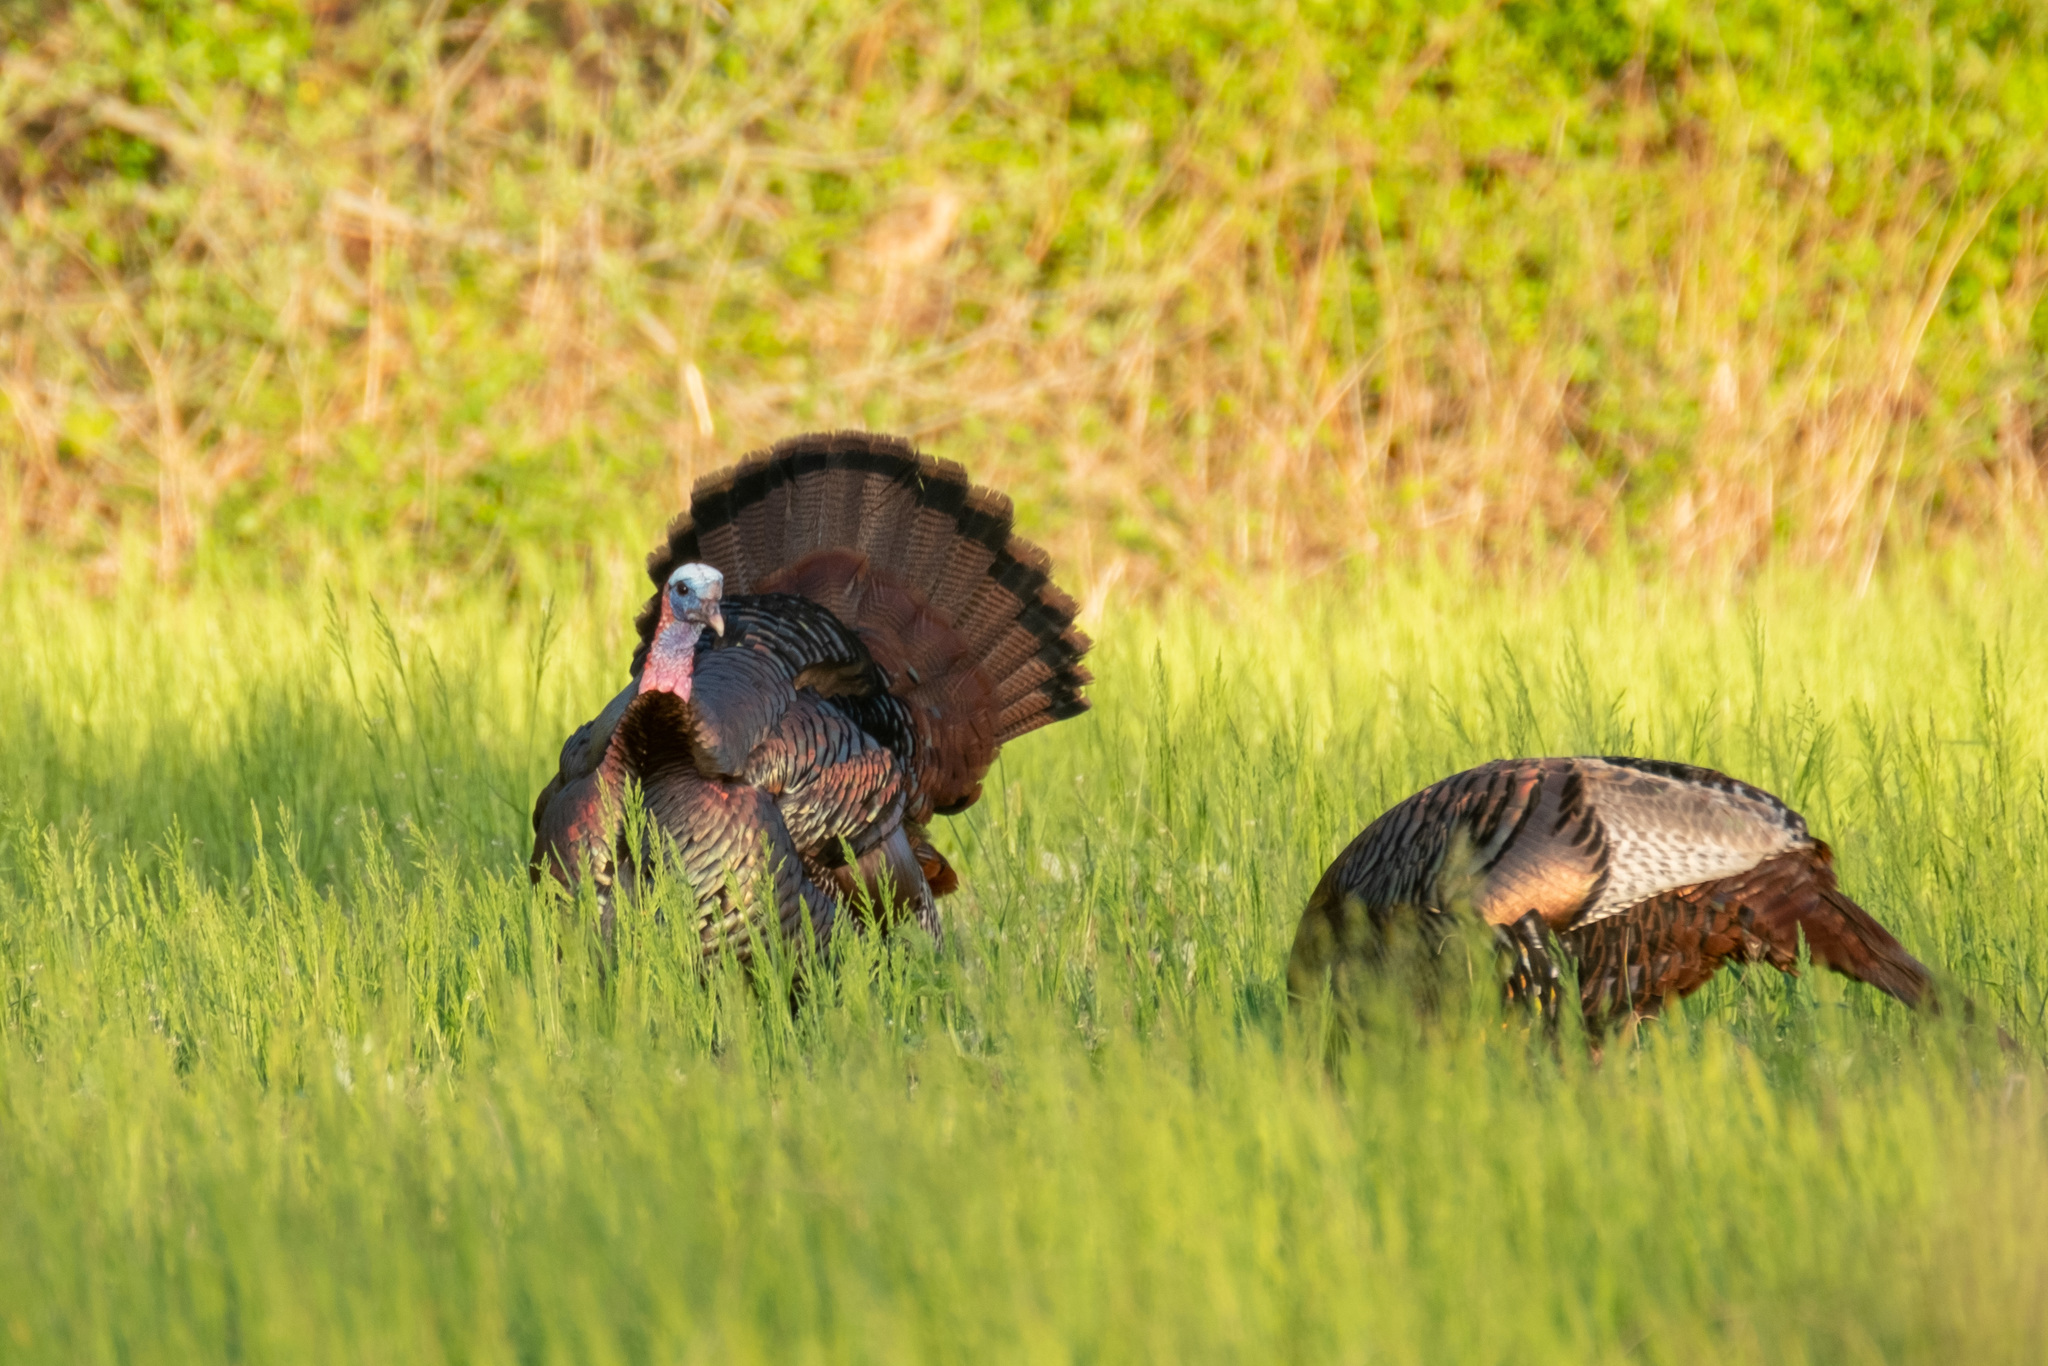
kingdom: Animalia
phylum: Chordata
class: Aves
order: Galliformes
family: Phasianidae
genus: Meleagris
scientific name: Meleagris gallopavo
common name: Wild turkey
